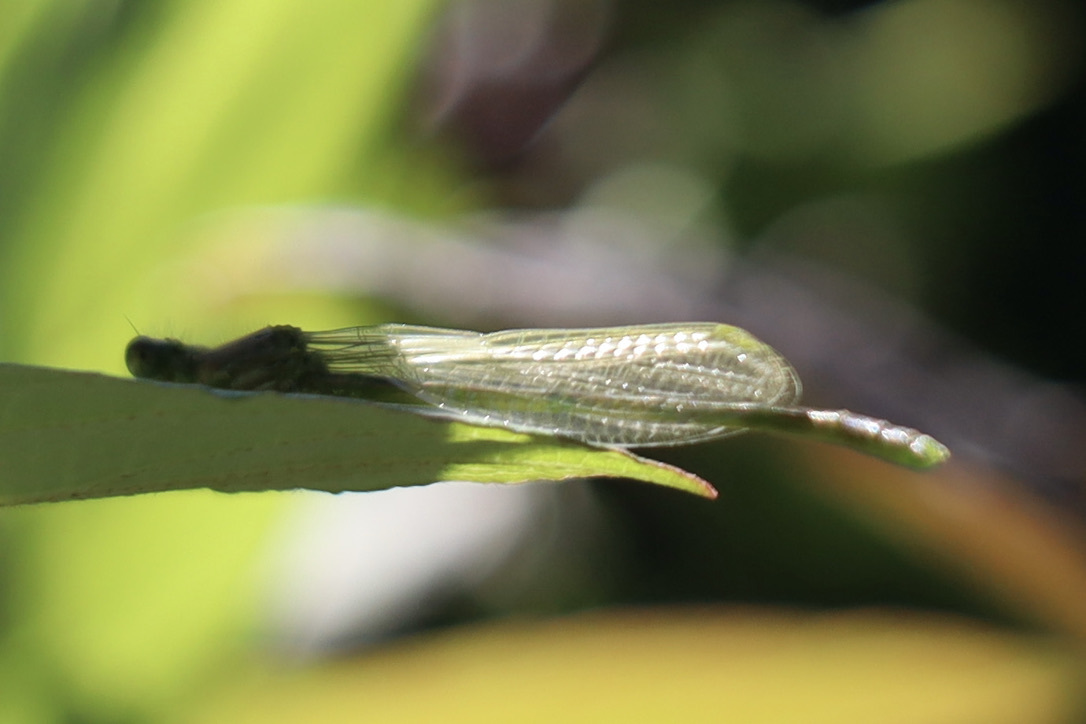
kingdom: Animalia
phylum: Arthropoda
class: Insecta
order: Odonata
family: Coenagrionidae
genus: Enallagma
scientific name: Enallagma carunculatum
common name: Tule bluet
